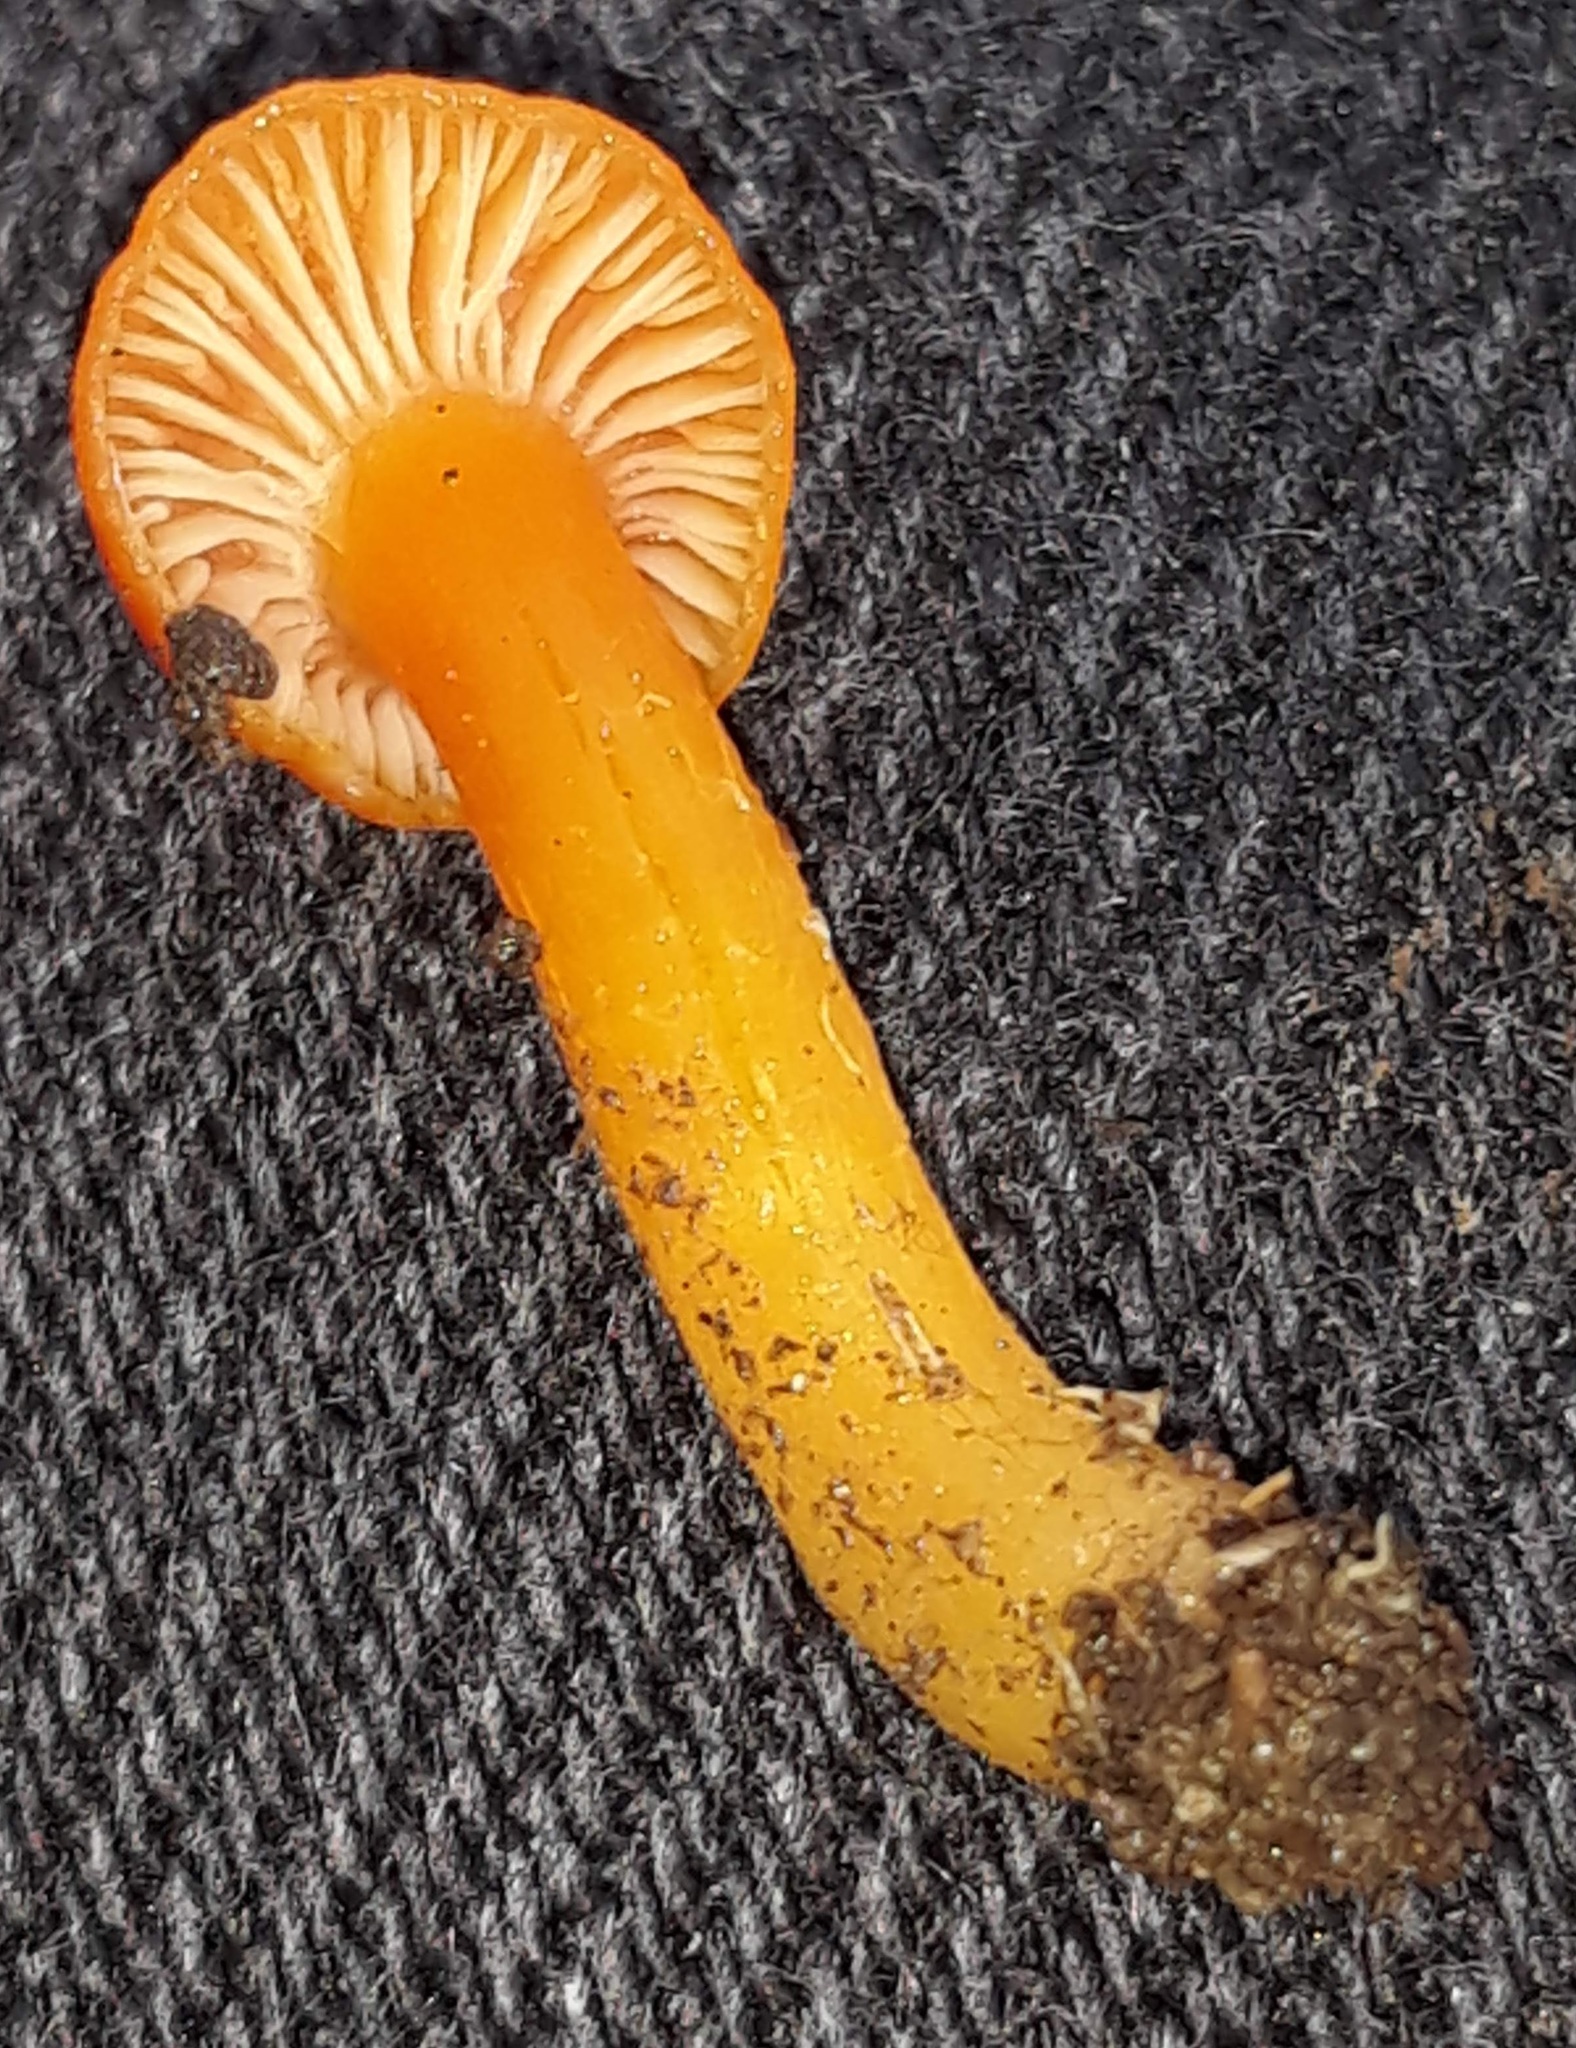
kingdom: Fungi
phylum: Basidiomycota
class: Agaricomycetes
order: Agaricales
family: Hygrophoraceae
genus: Hygrocybe
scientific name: Hygrocybe coccinea
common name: Scarlet hood
